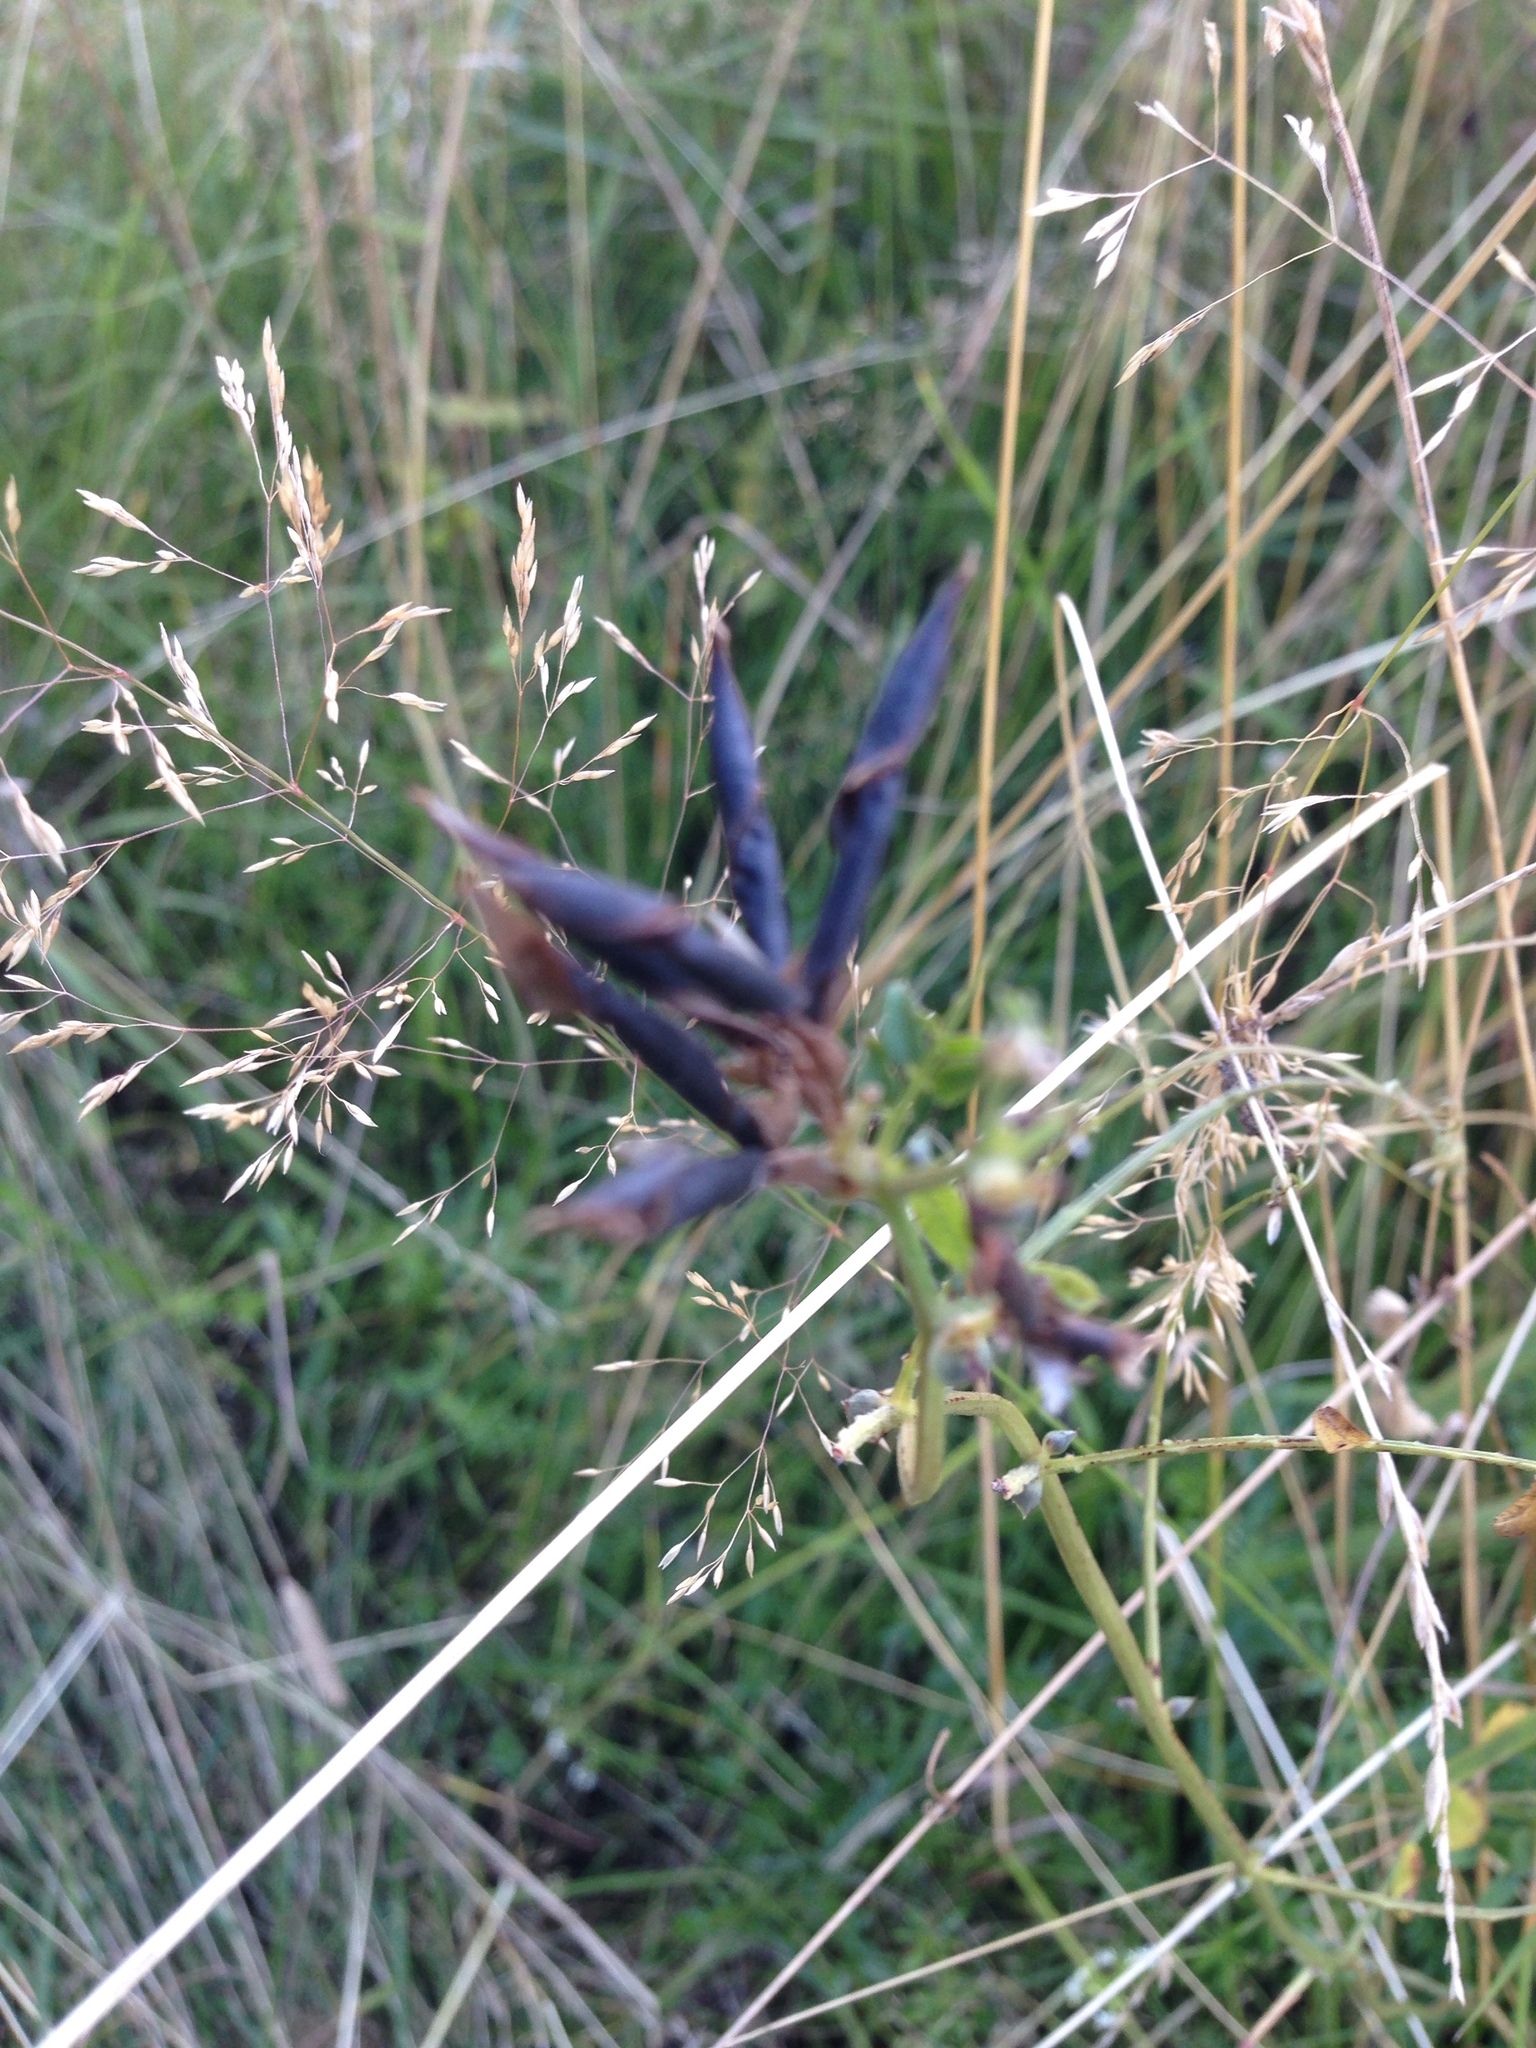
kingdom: Plantae
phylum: Tracheophyta
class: Magnoliopsida
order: Fabales
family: Fabaceae
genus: Vicia
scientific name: Vicia sepium
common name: Bush vetch
